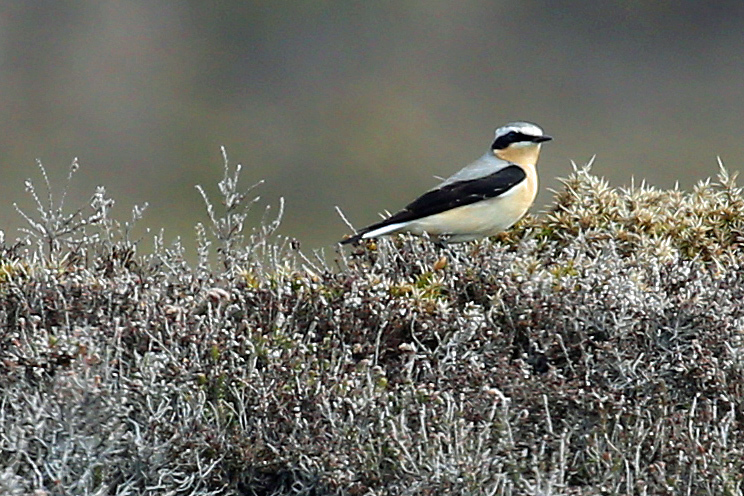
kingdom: Animalia
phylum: Chordata
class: Aves
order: Passeriformes
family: Muscicapidae
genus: Oenanthe
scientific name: Oenanthe oenanthe
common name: Northern wheatear
